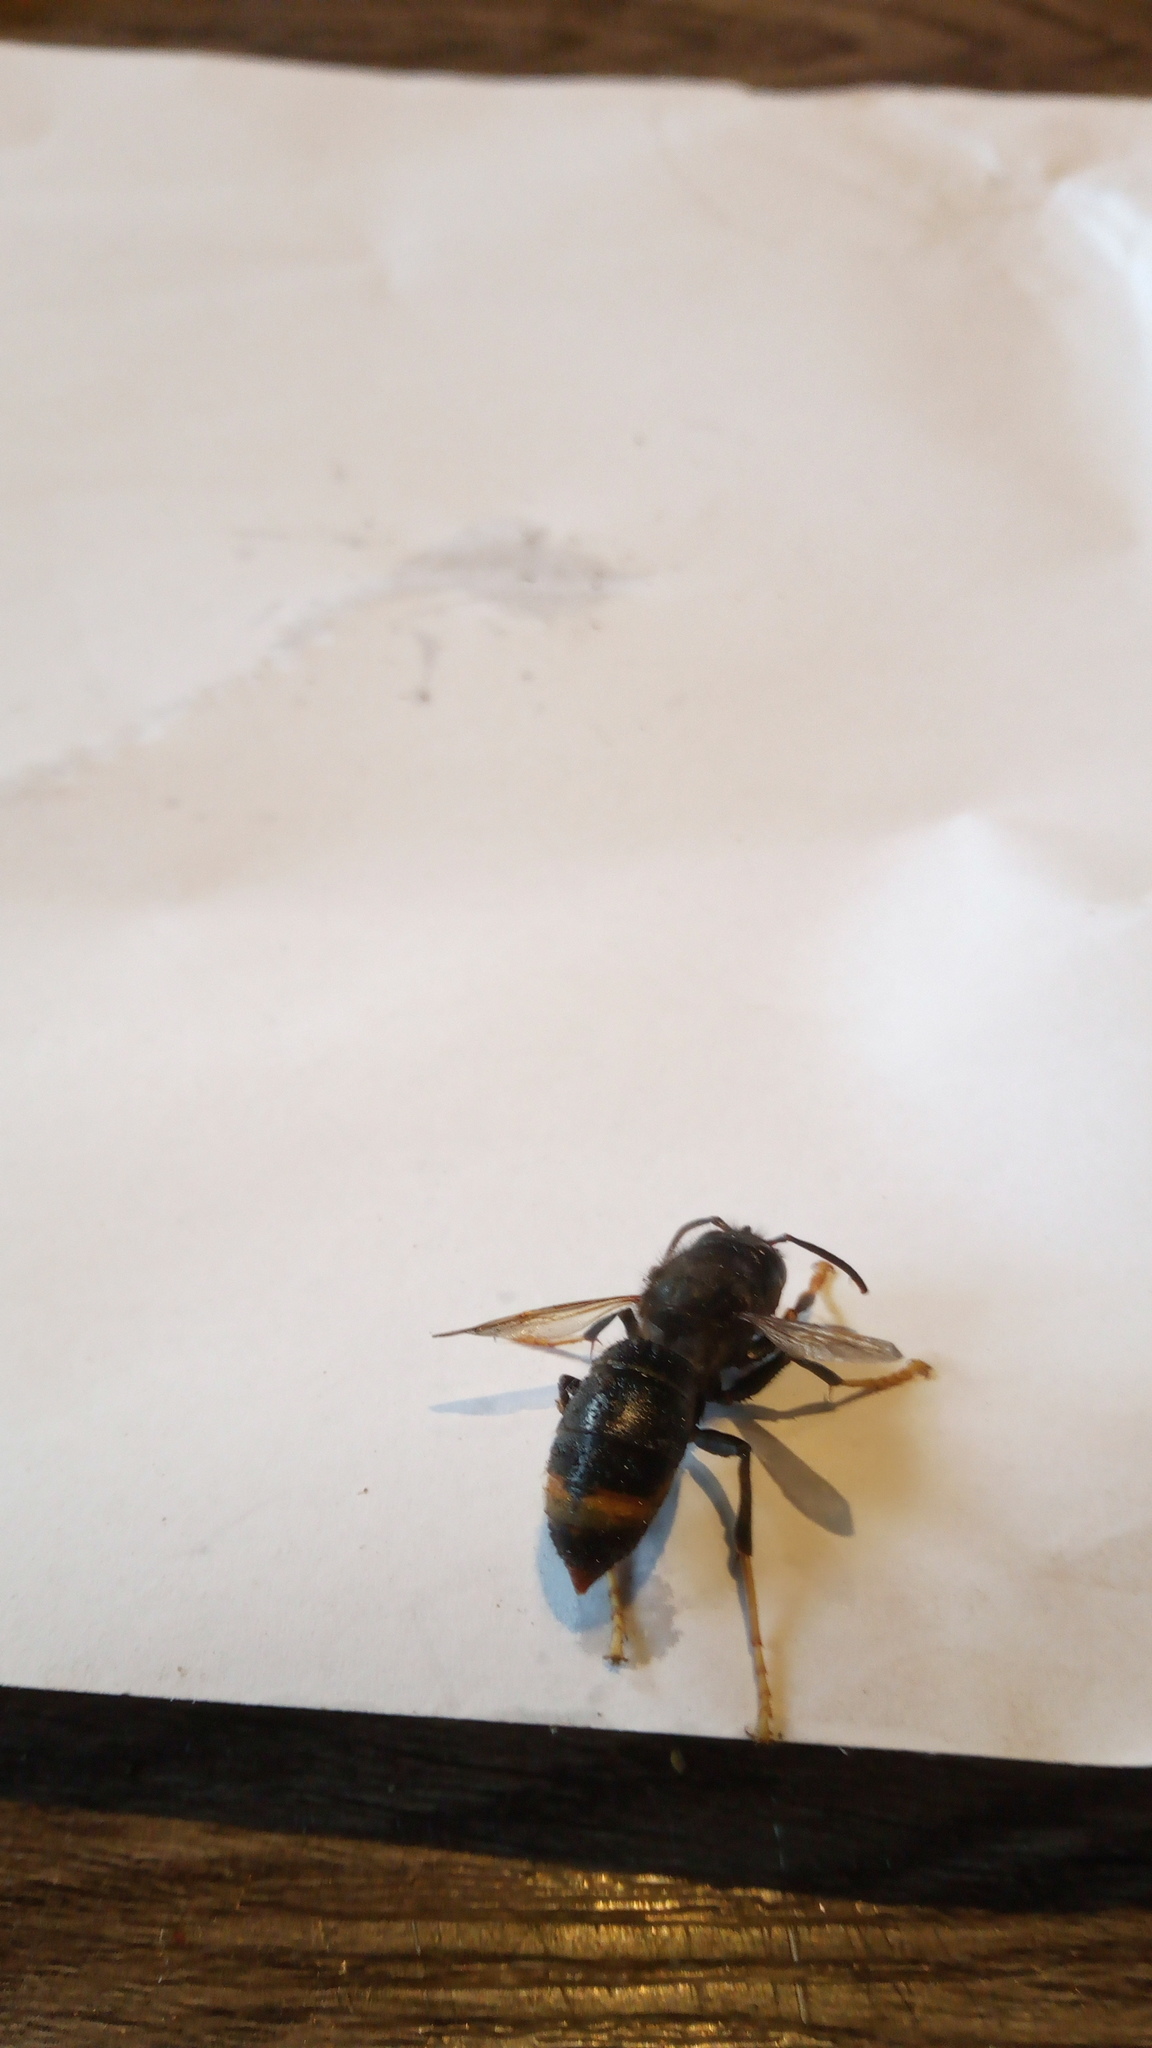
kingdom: Animalia
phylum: Arthropoda
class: Insecta
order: Hymenoptera
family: Vespidae
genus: Vespa
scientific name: Vespa velutina
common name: Asian hornet
